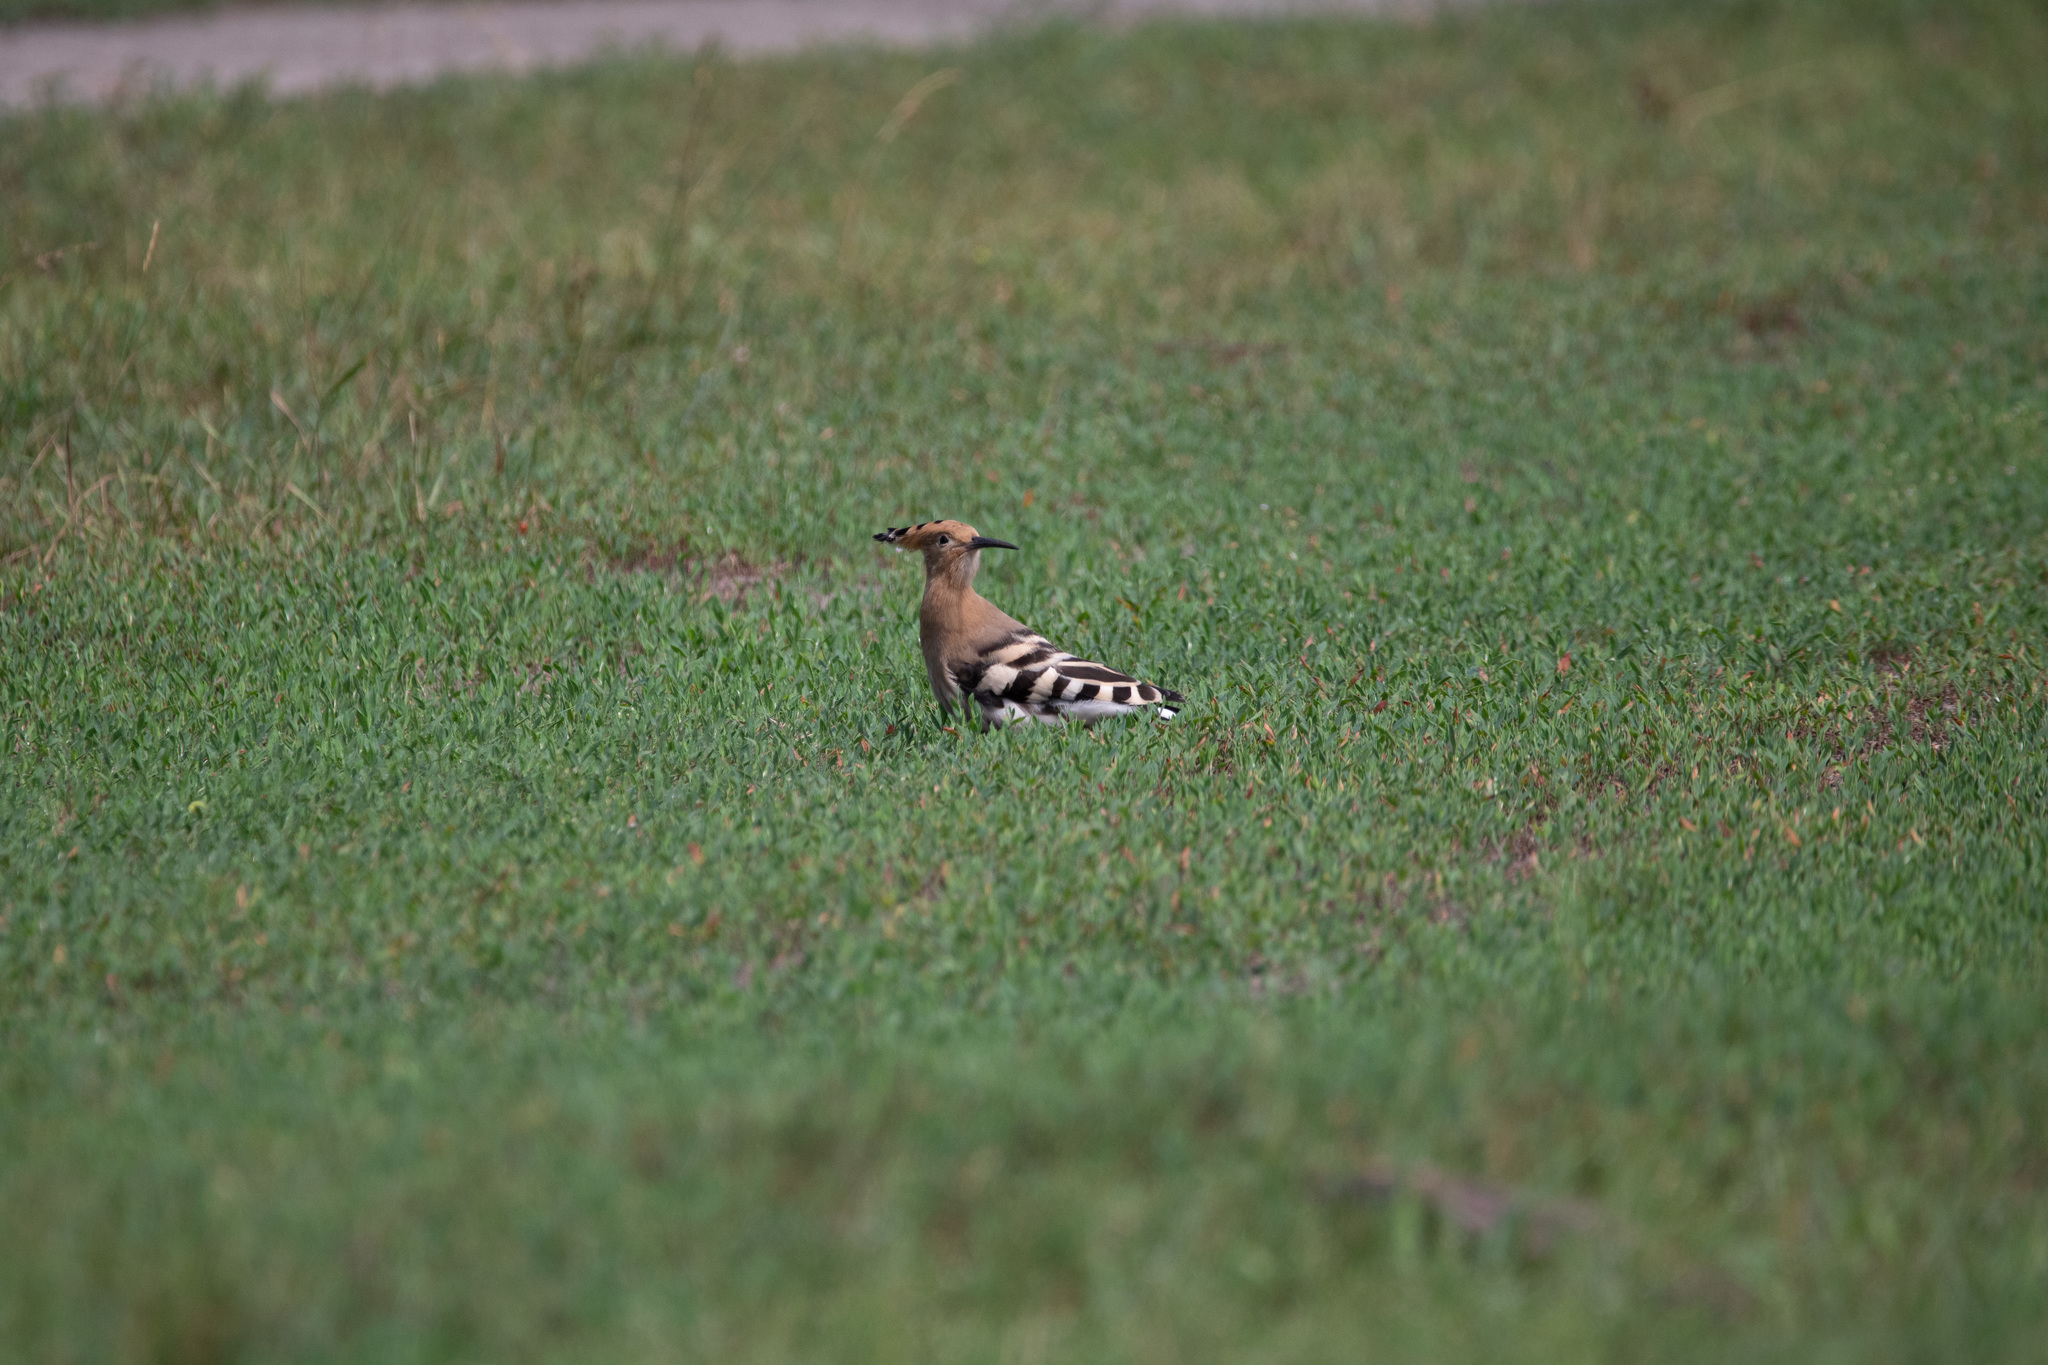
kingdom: Animalia
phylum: Chordata
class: Aves
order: Bucerotiformes
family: Upupidae
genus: Upupa
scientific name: Upupa epops
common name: Eurasian hoopoe
